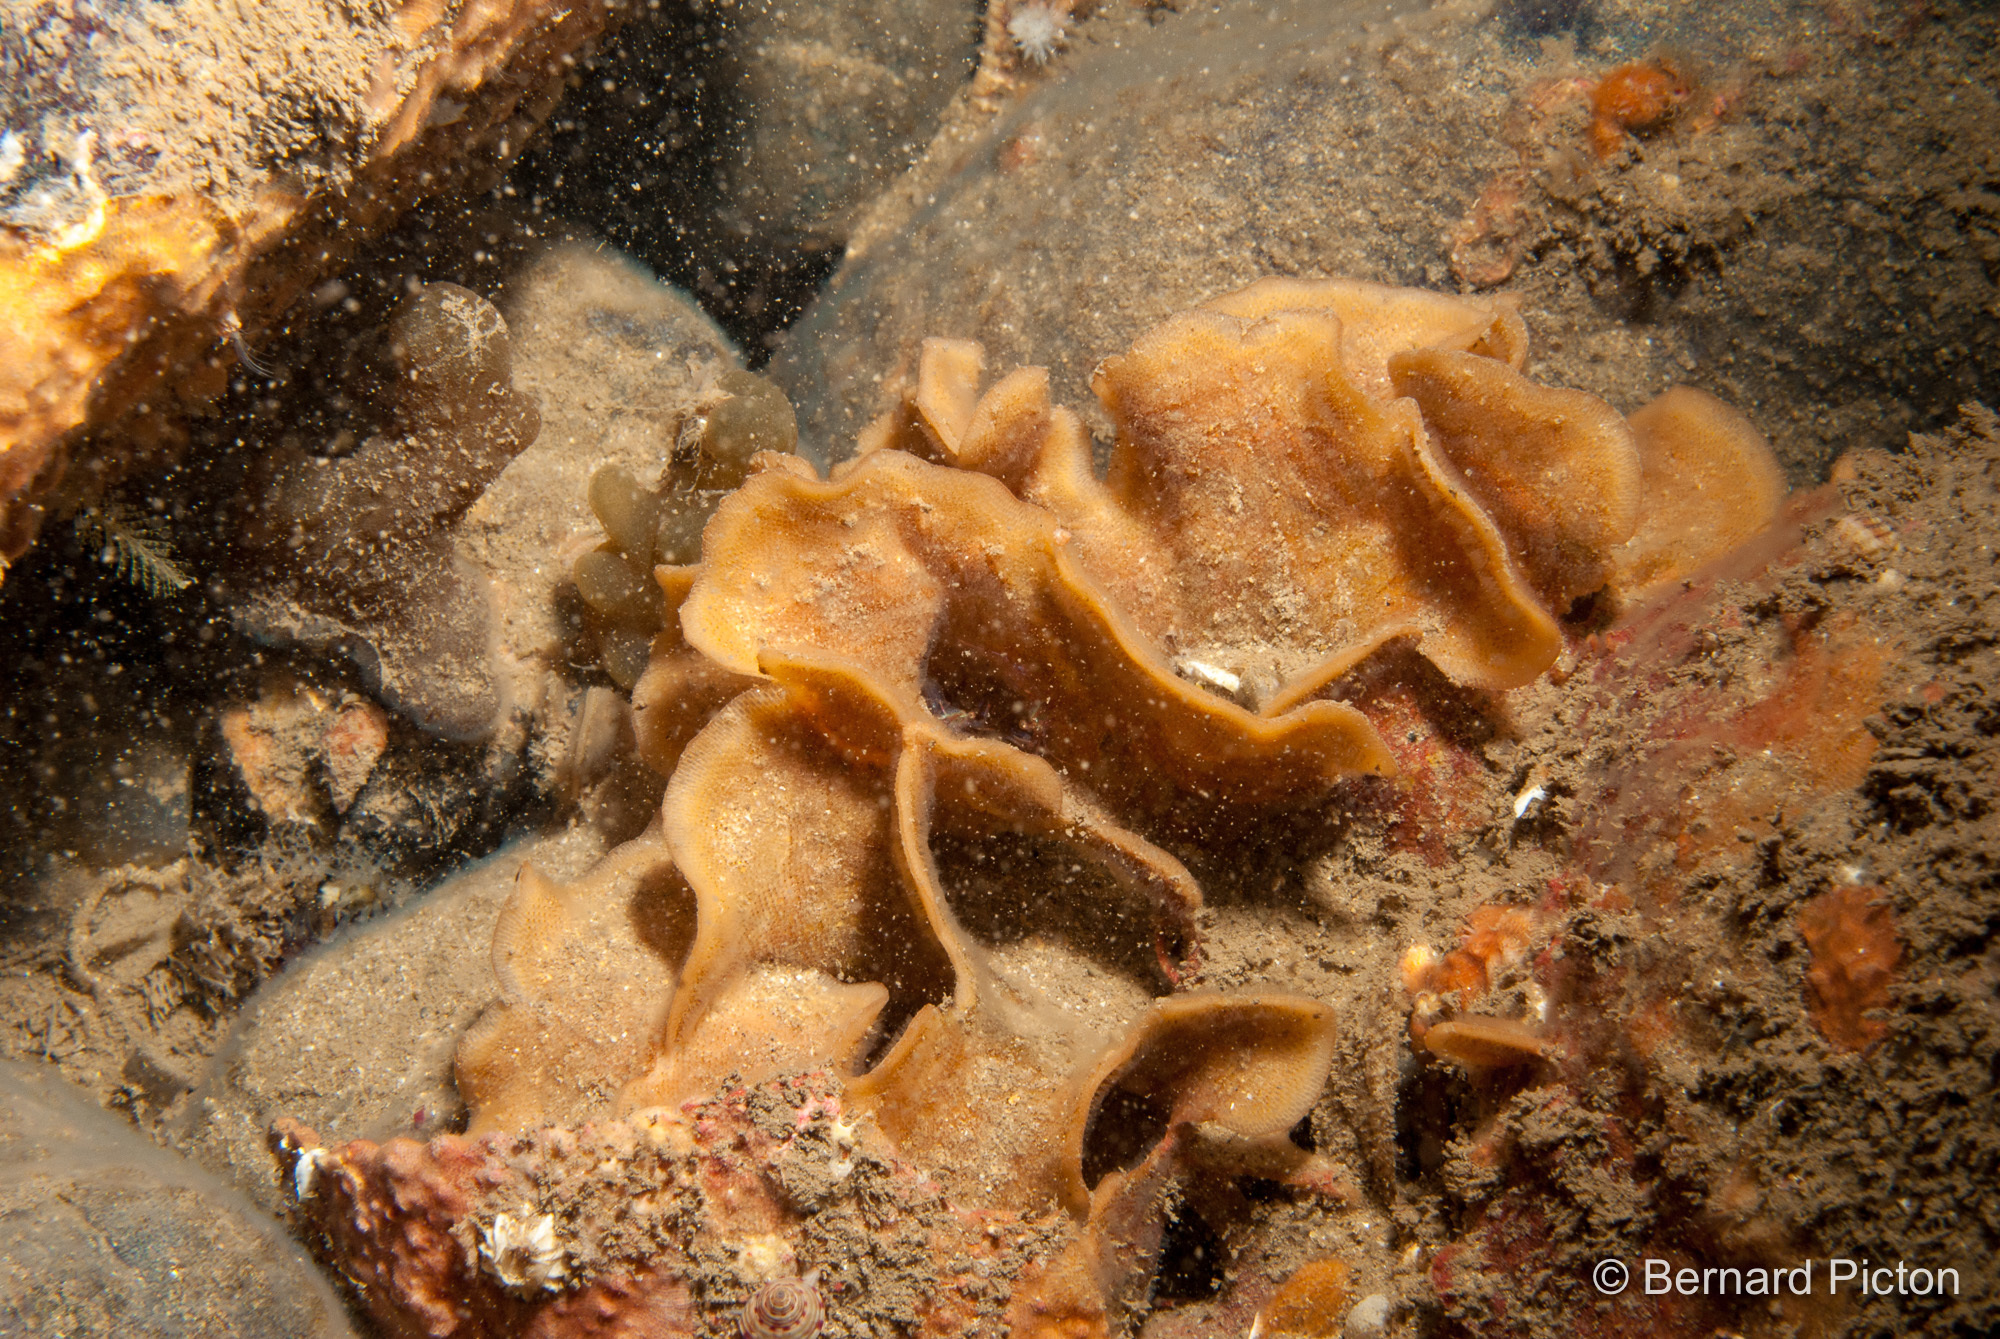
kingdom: Animalia
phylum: Bryozoa
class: Gymnolaemata
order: Cheilostomatida
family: Bitectiporidae
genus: Pentapora
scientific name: Pentapora foliacea
